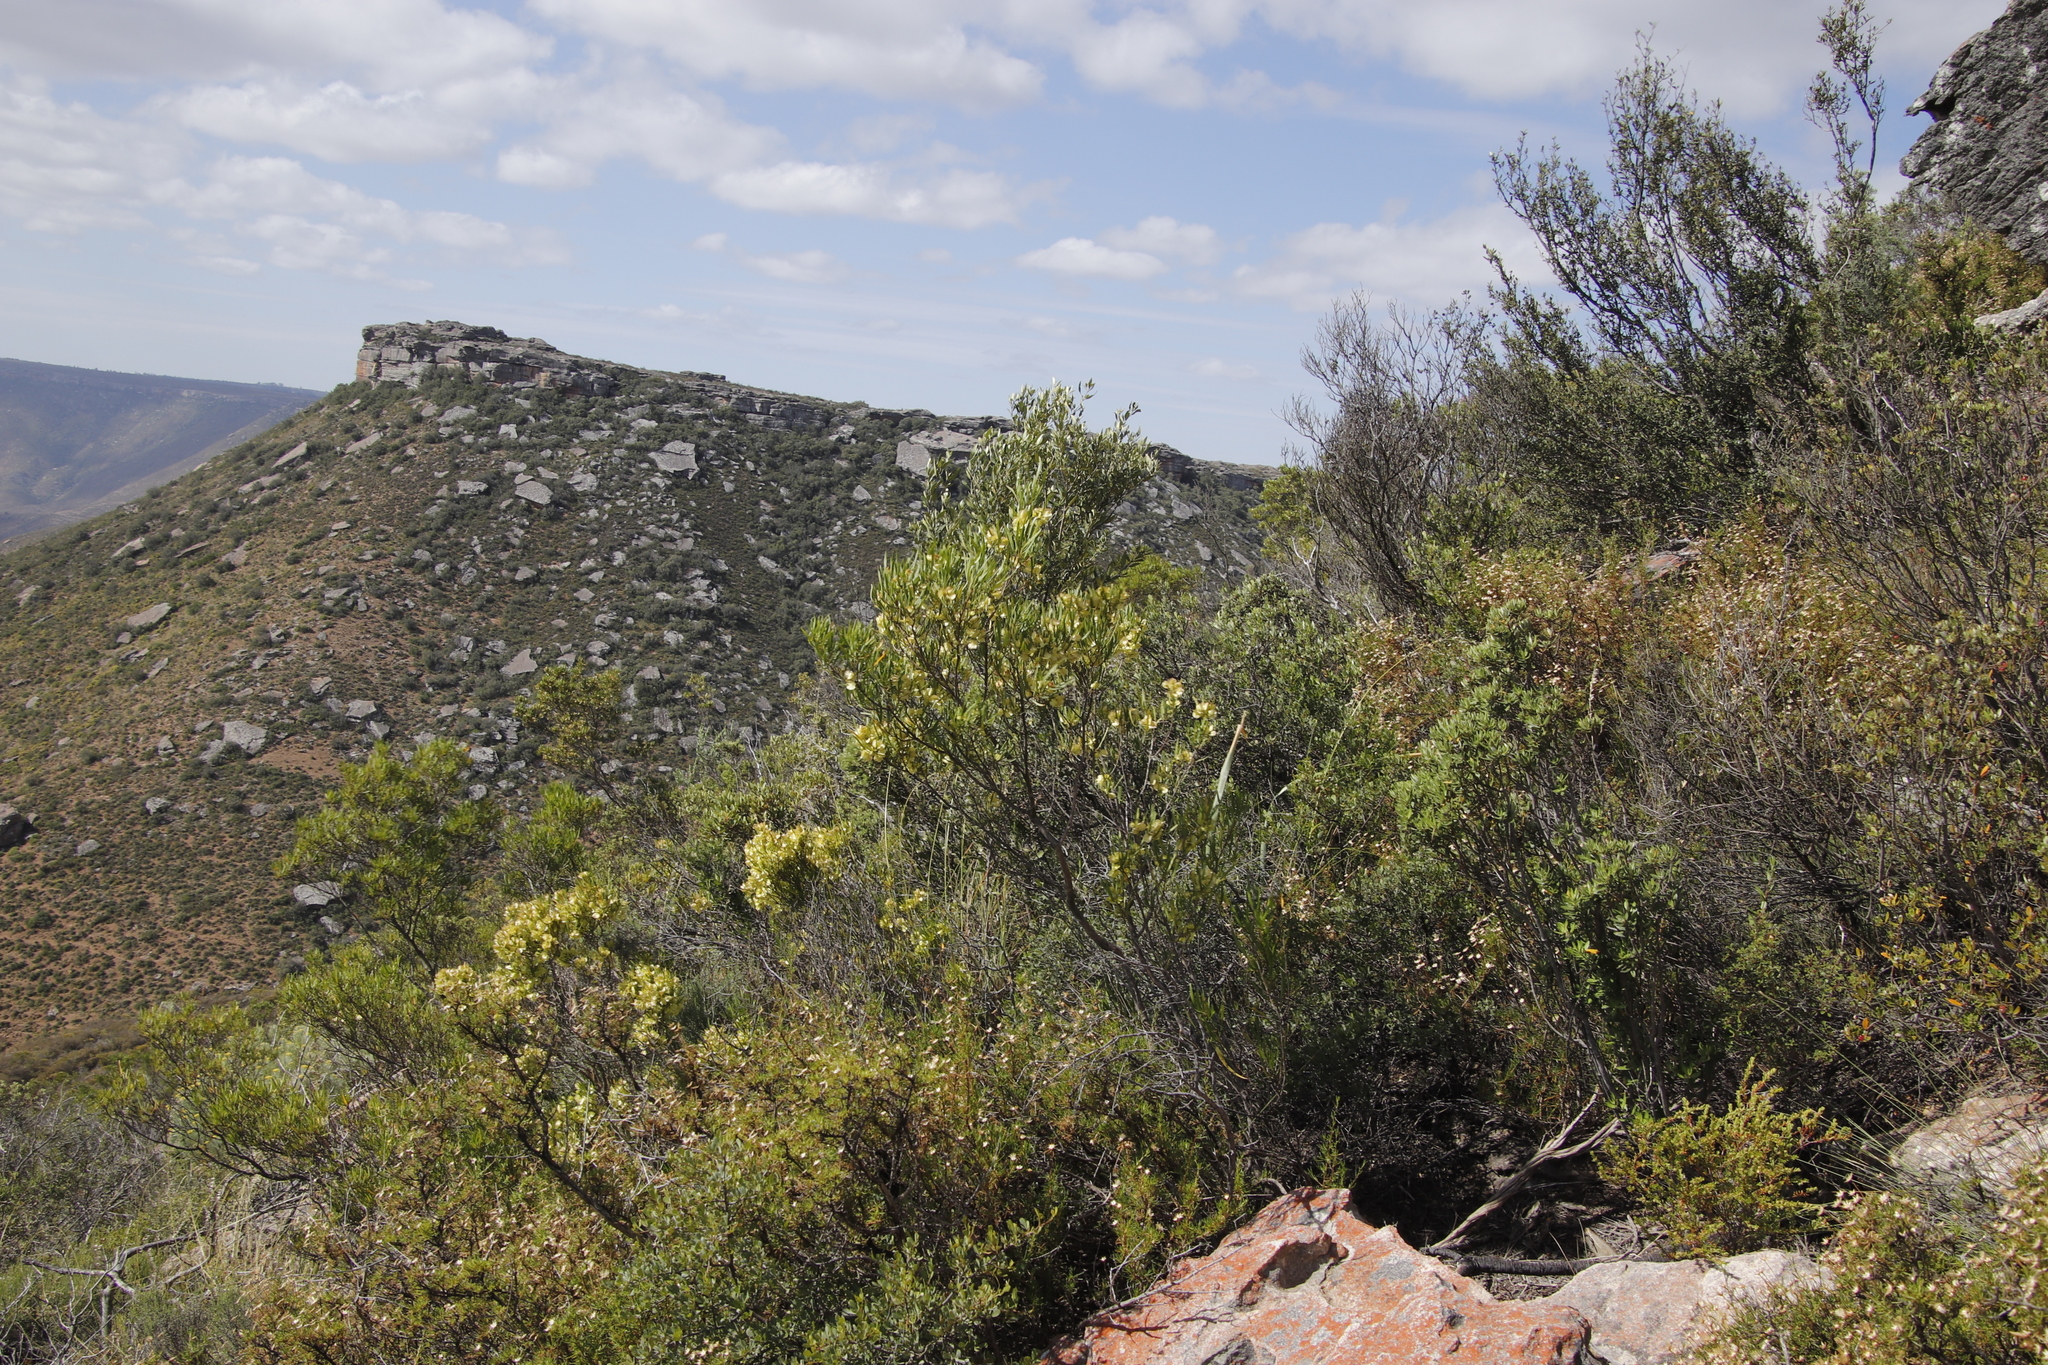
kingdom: Plantae
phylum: Tracheophyta
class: Magnoliopsida
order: Sapindales
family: Sapindaceae
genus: Dodonaea
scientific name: Dodonaea viscosa
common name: Hopbush
